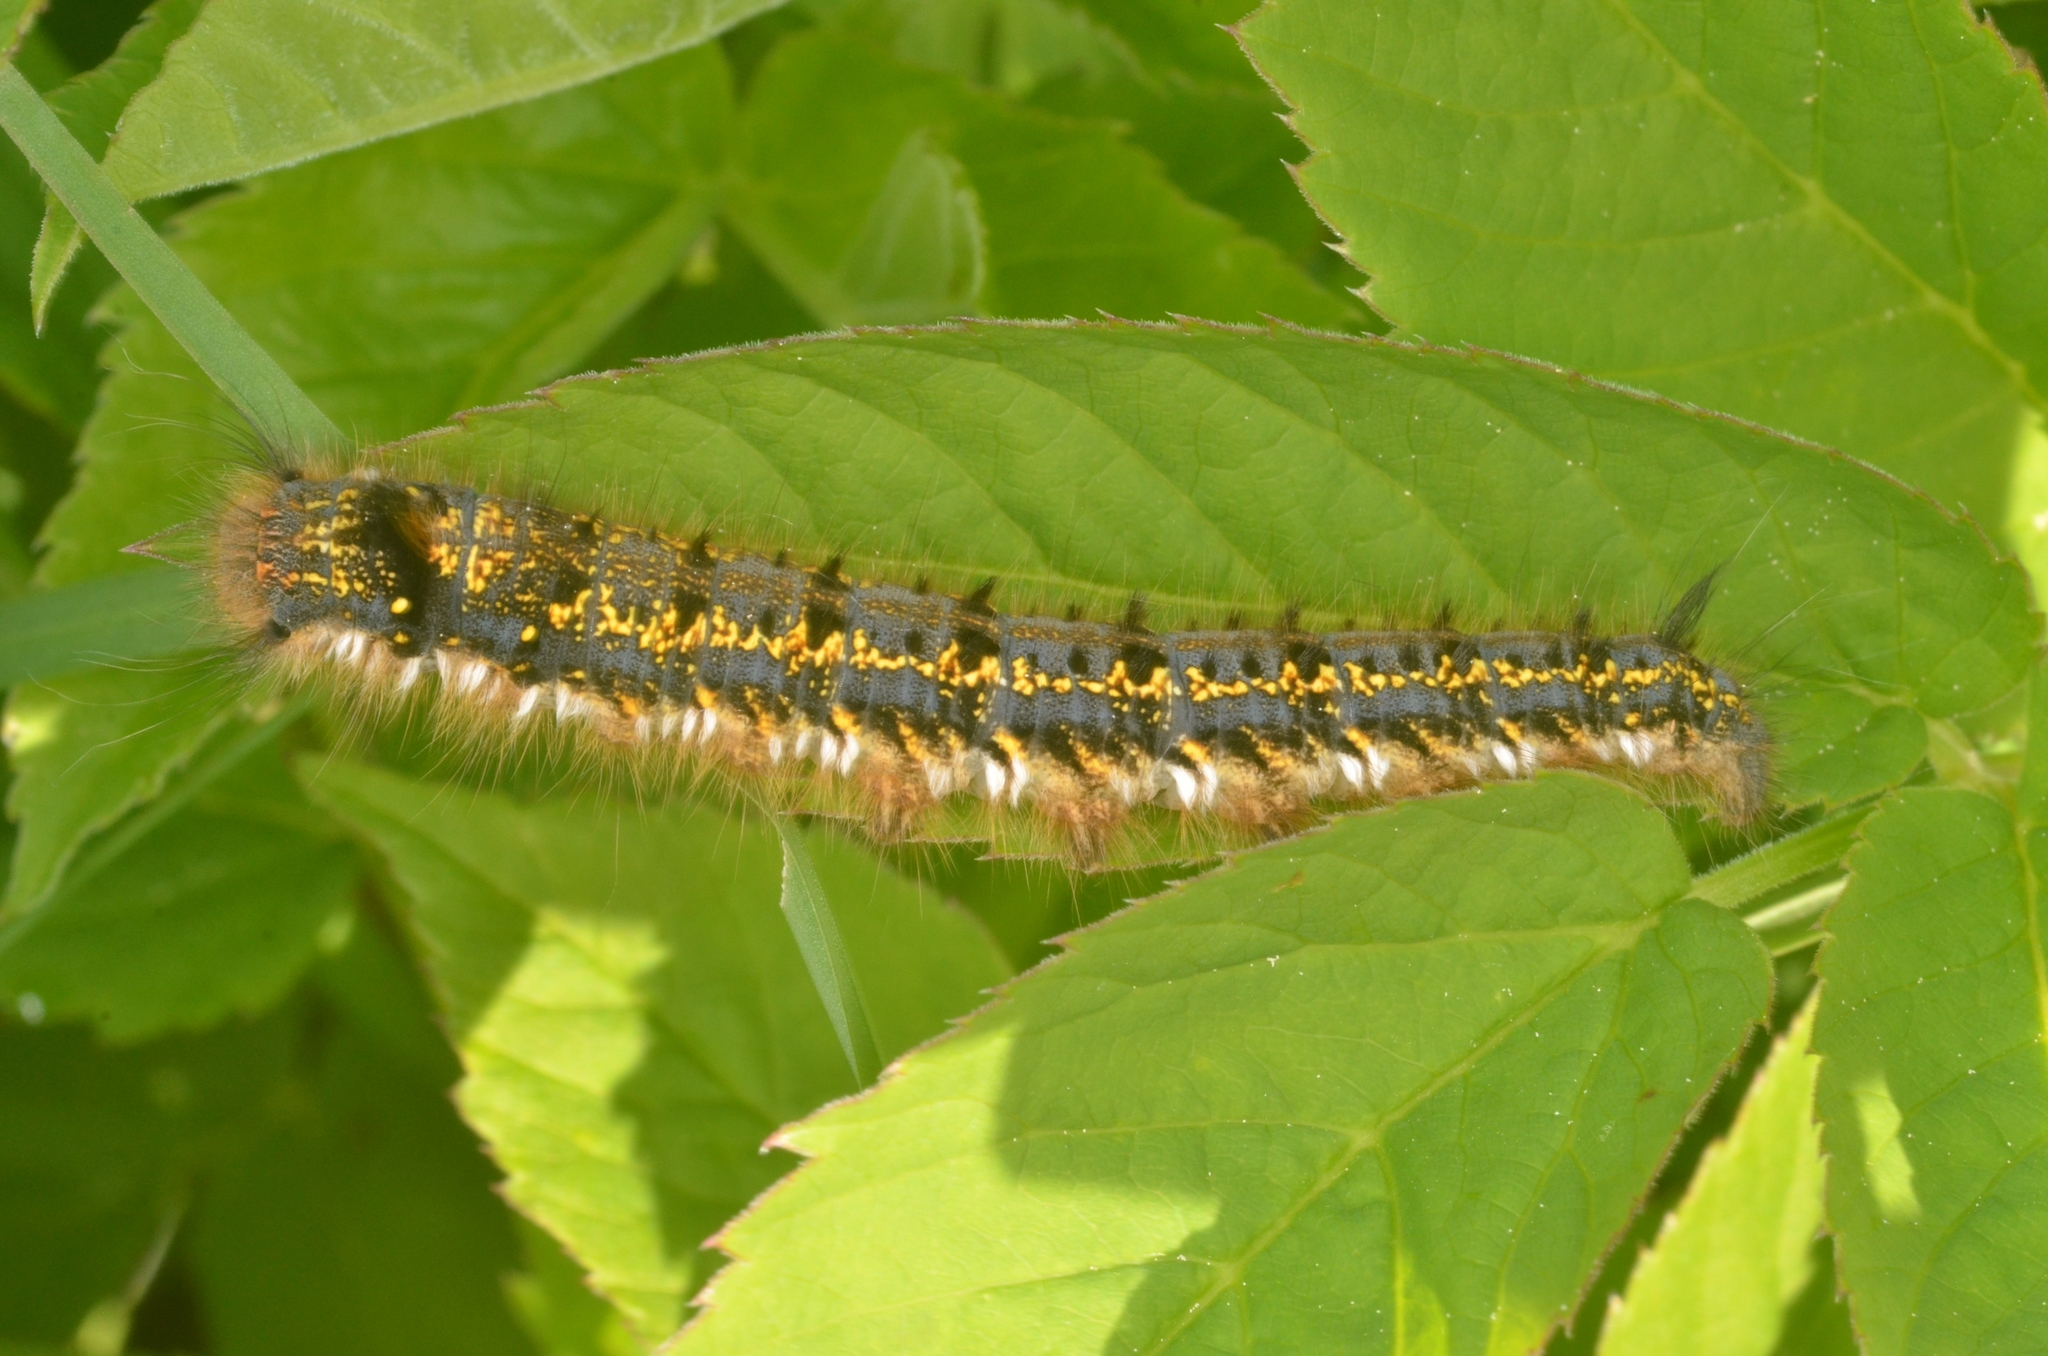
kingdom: Animalia
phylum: Arthropoda
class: Insecta
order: Lepidoptera
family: Lasiocampidae
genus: Euthrix
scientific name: Euthrix potatoria
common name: Drinker
